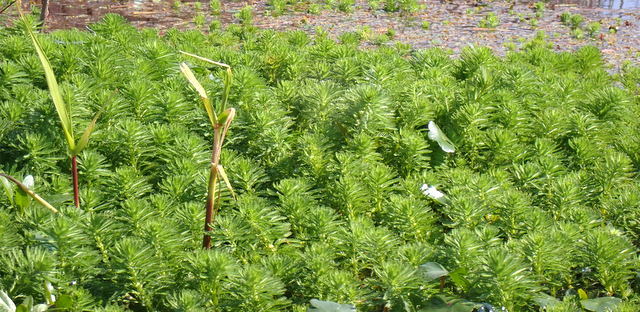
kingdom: Plantae
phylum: Tracheophyta
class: Magnoliopsida
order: Saxifragales
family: Haloragaceae
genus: Myriophyllum
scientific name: Myriophyllum aquaticum
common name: Parrot's feather
